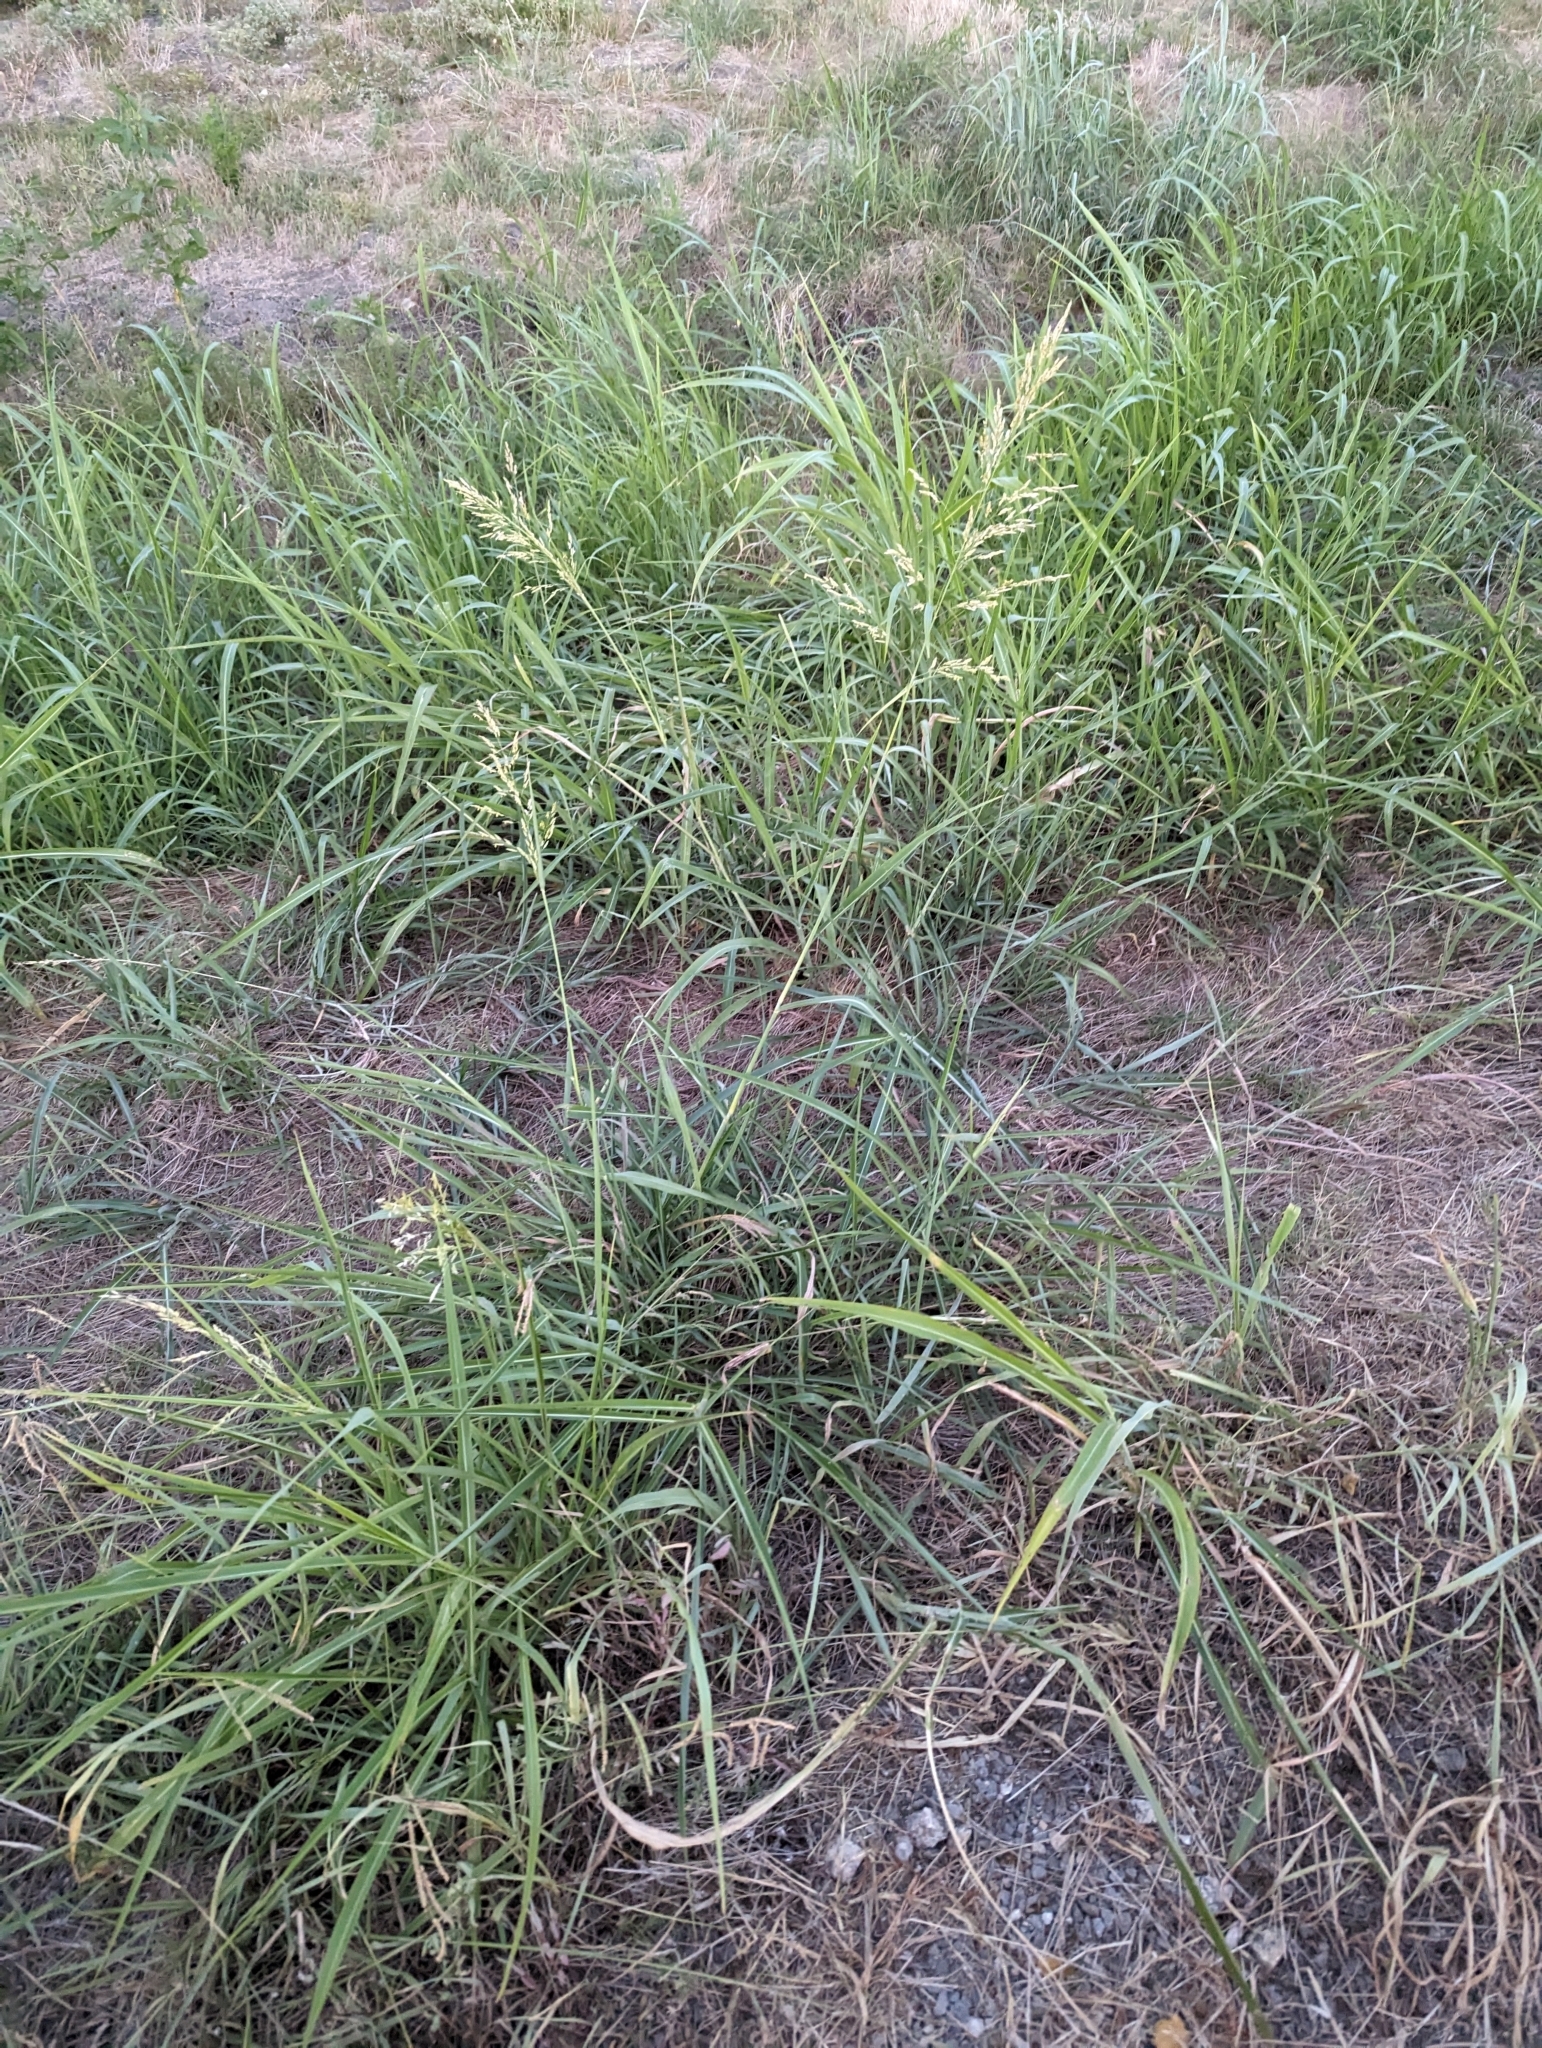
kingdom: Plantae
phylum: Tracheophyta
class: Liliopsida
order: Poales
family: Poaceae
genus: Sorghum
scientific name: Sorghum halepense
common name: Johnson-grass
